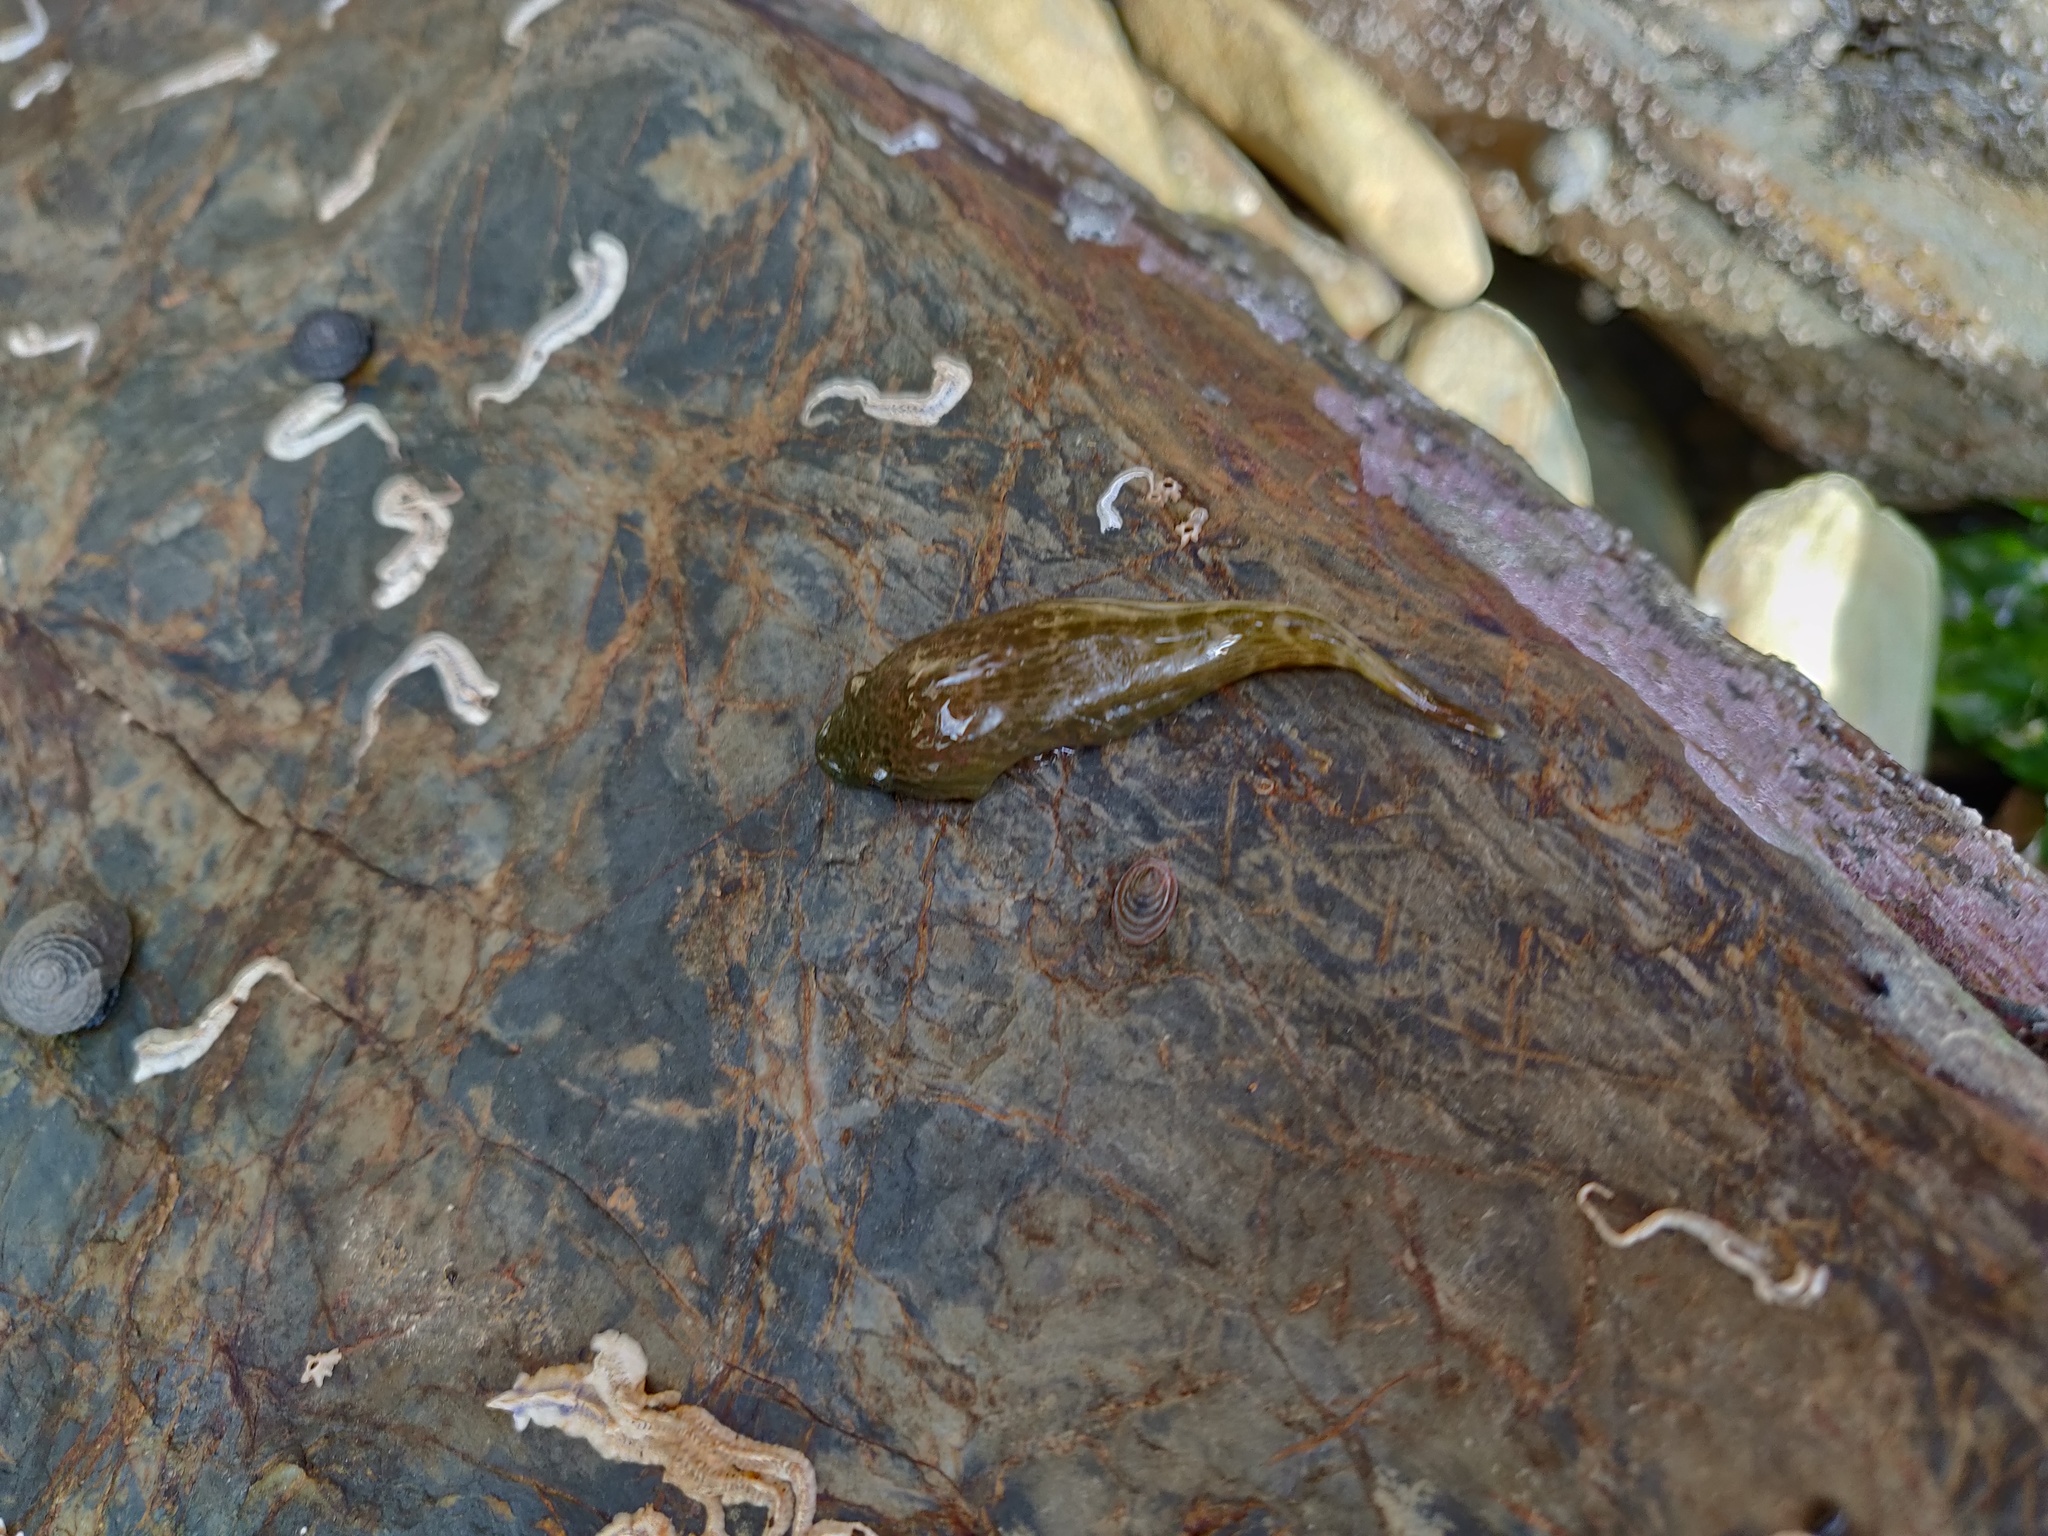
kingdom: Animalia
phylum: Chordata
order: Gobiesociformes
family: Gobiesocidae
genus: Trachelochismus
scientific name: Trachelochismus pinnulatus
